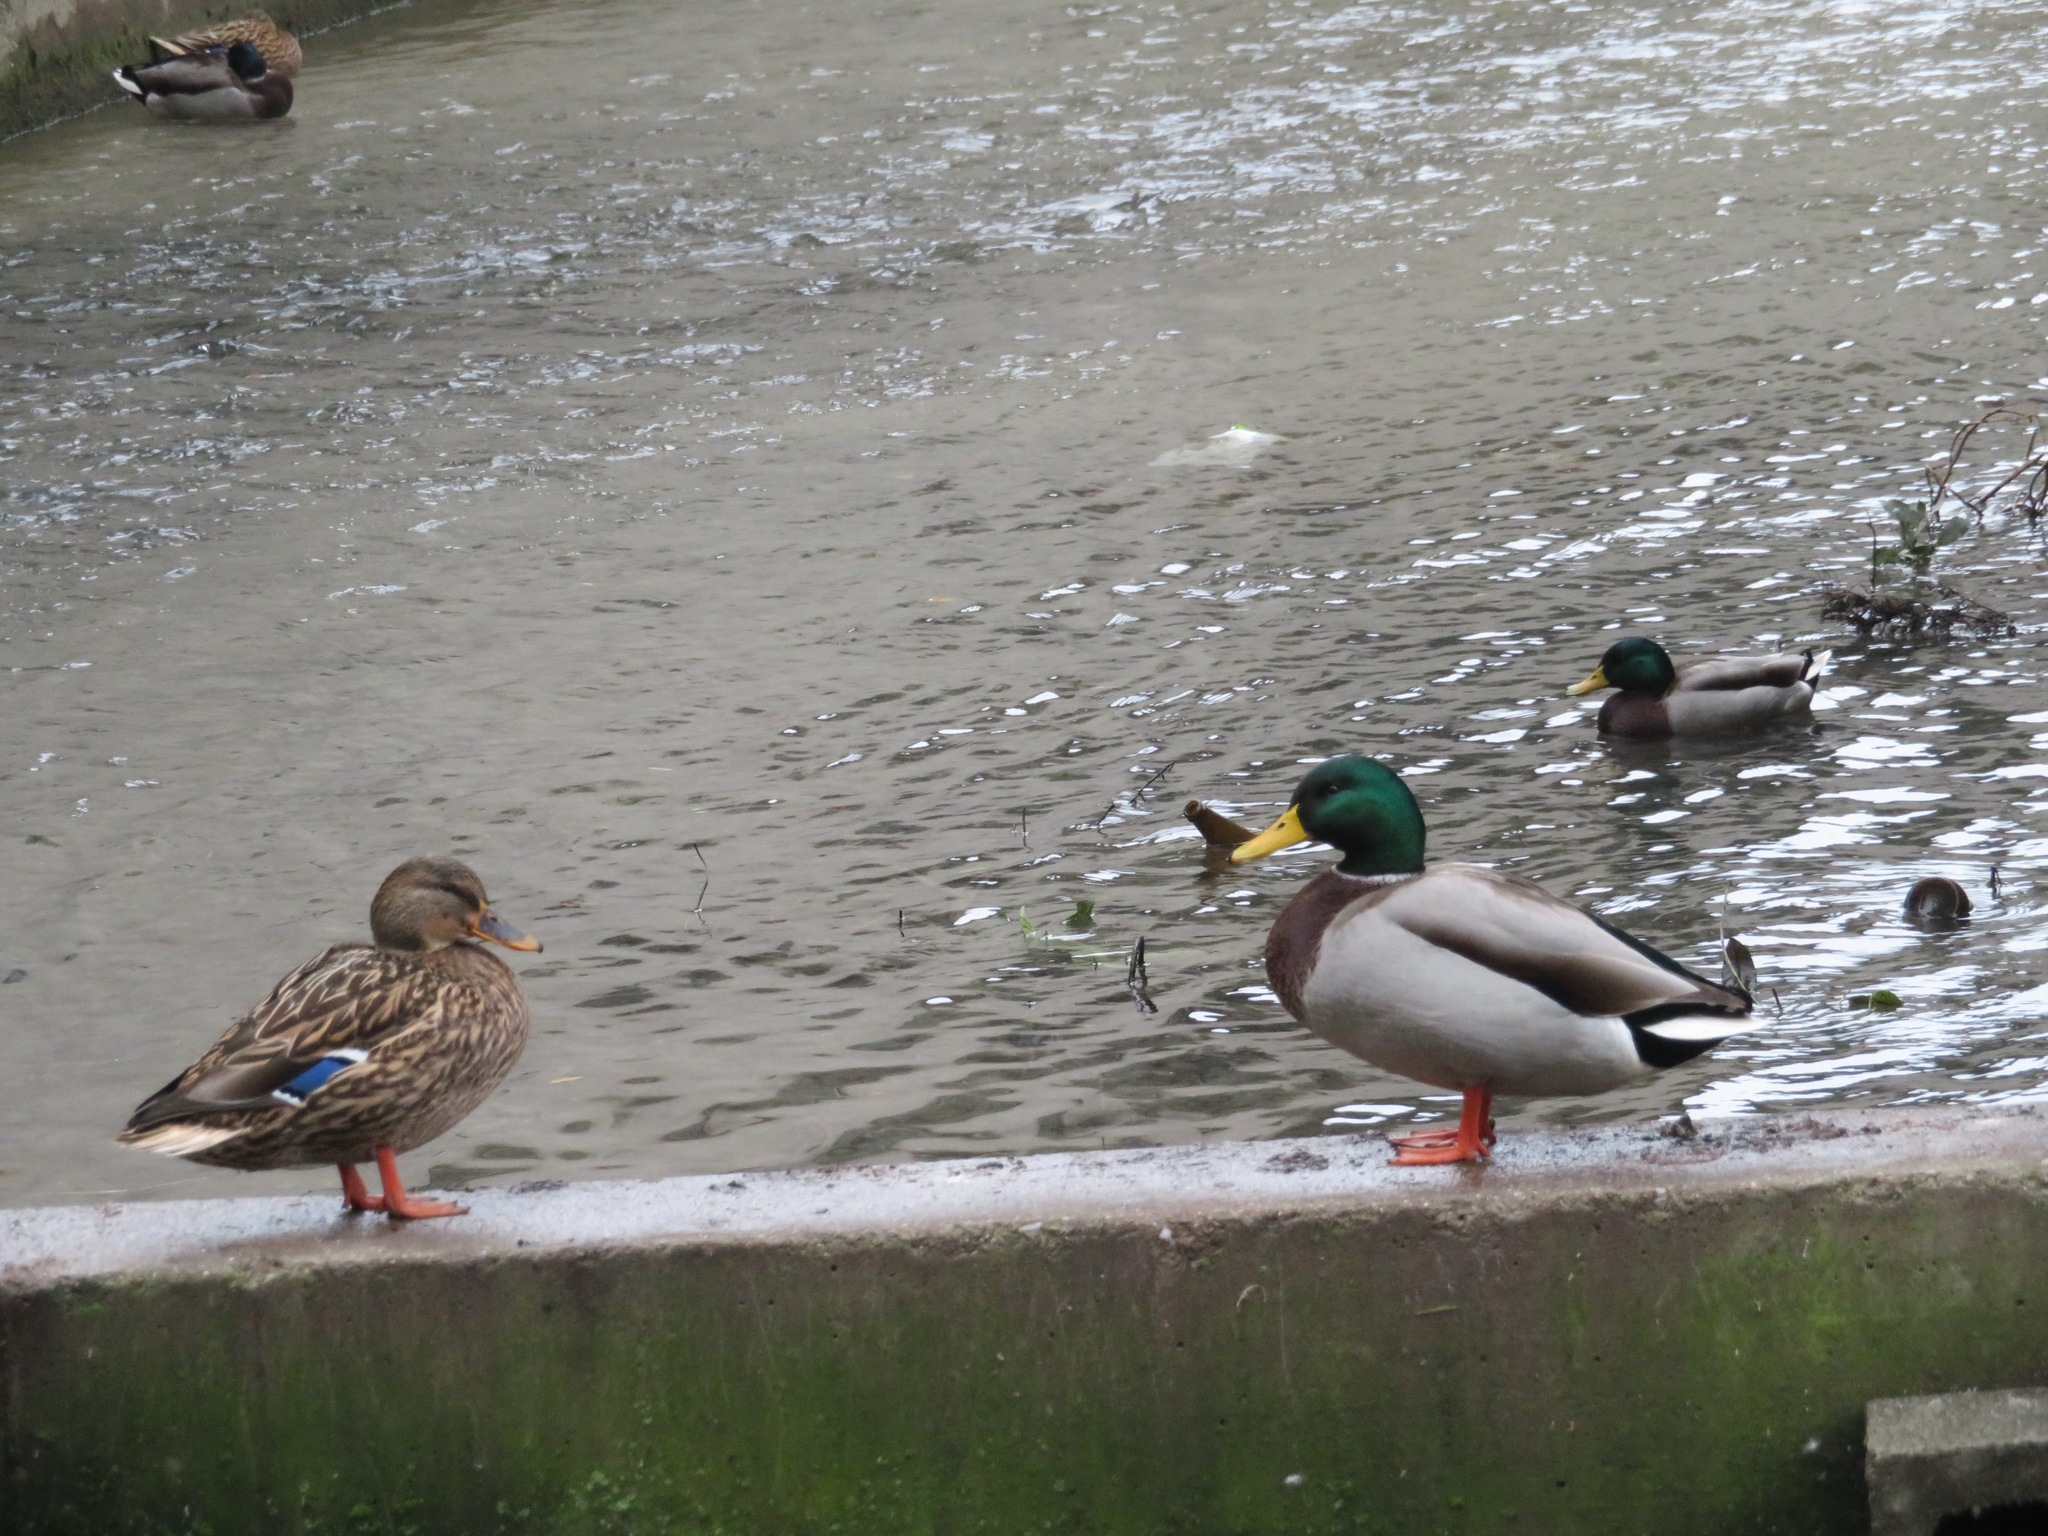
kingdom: Animalia
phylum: Chordata
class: Aves
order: Anseriformes
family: Anatidae
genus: Anas
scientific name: Anas platyrhynchos
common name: Mallard
